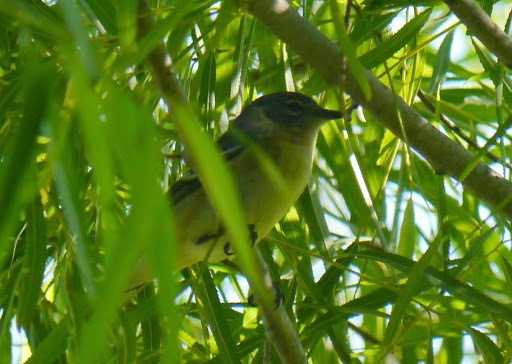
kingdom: Animalia
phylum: Chordata
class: Aves
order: Passeriformes
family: Parulidae
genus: Setophaga
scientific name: Setophaga castanea
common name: Bay-breasted warbler
